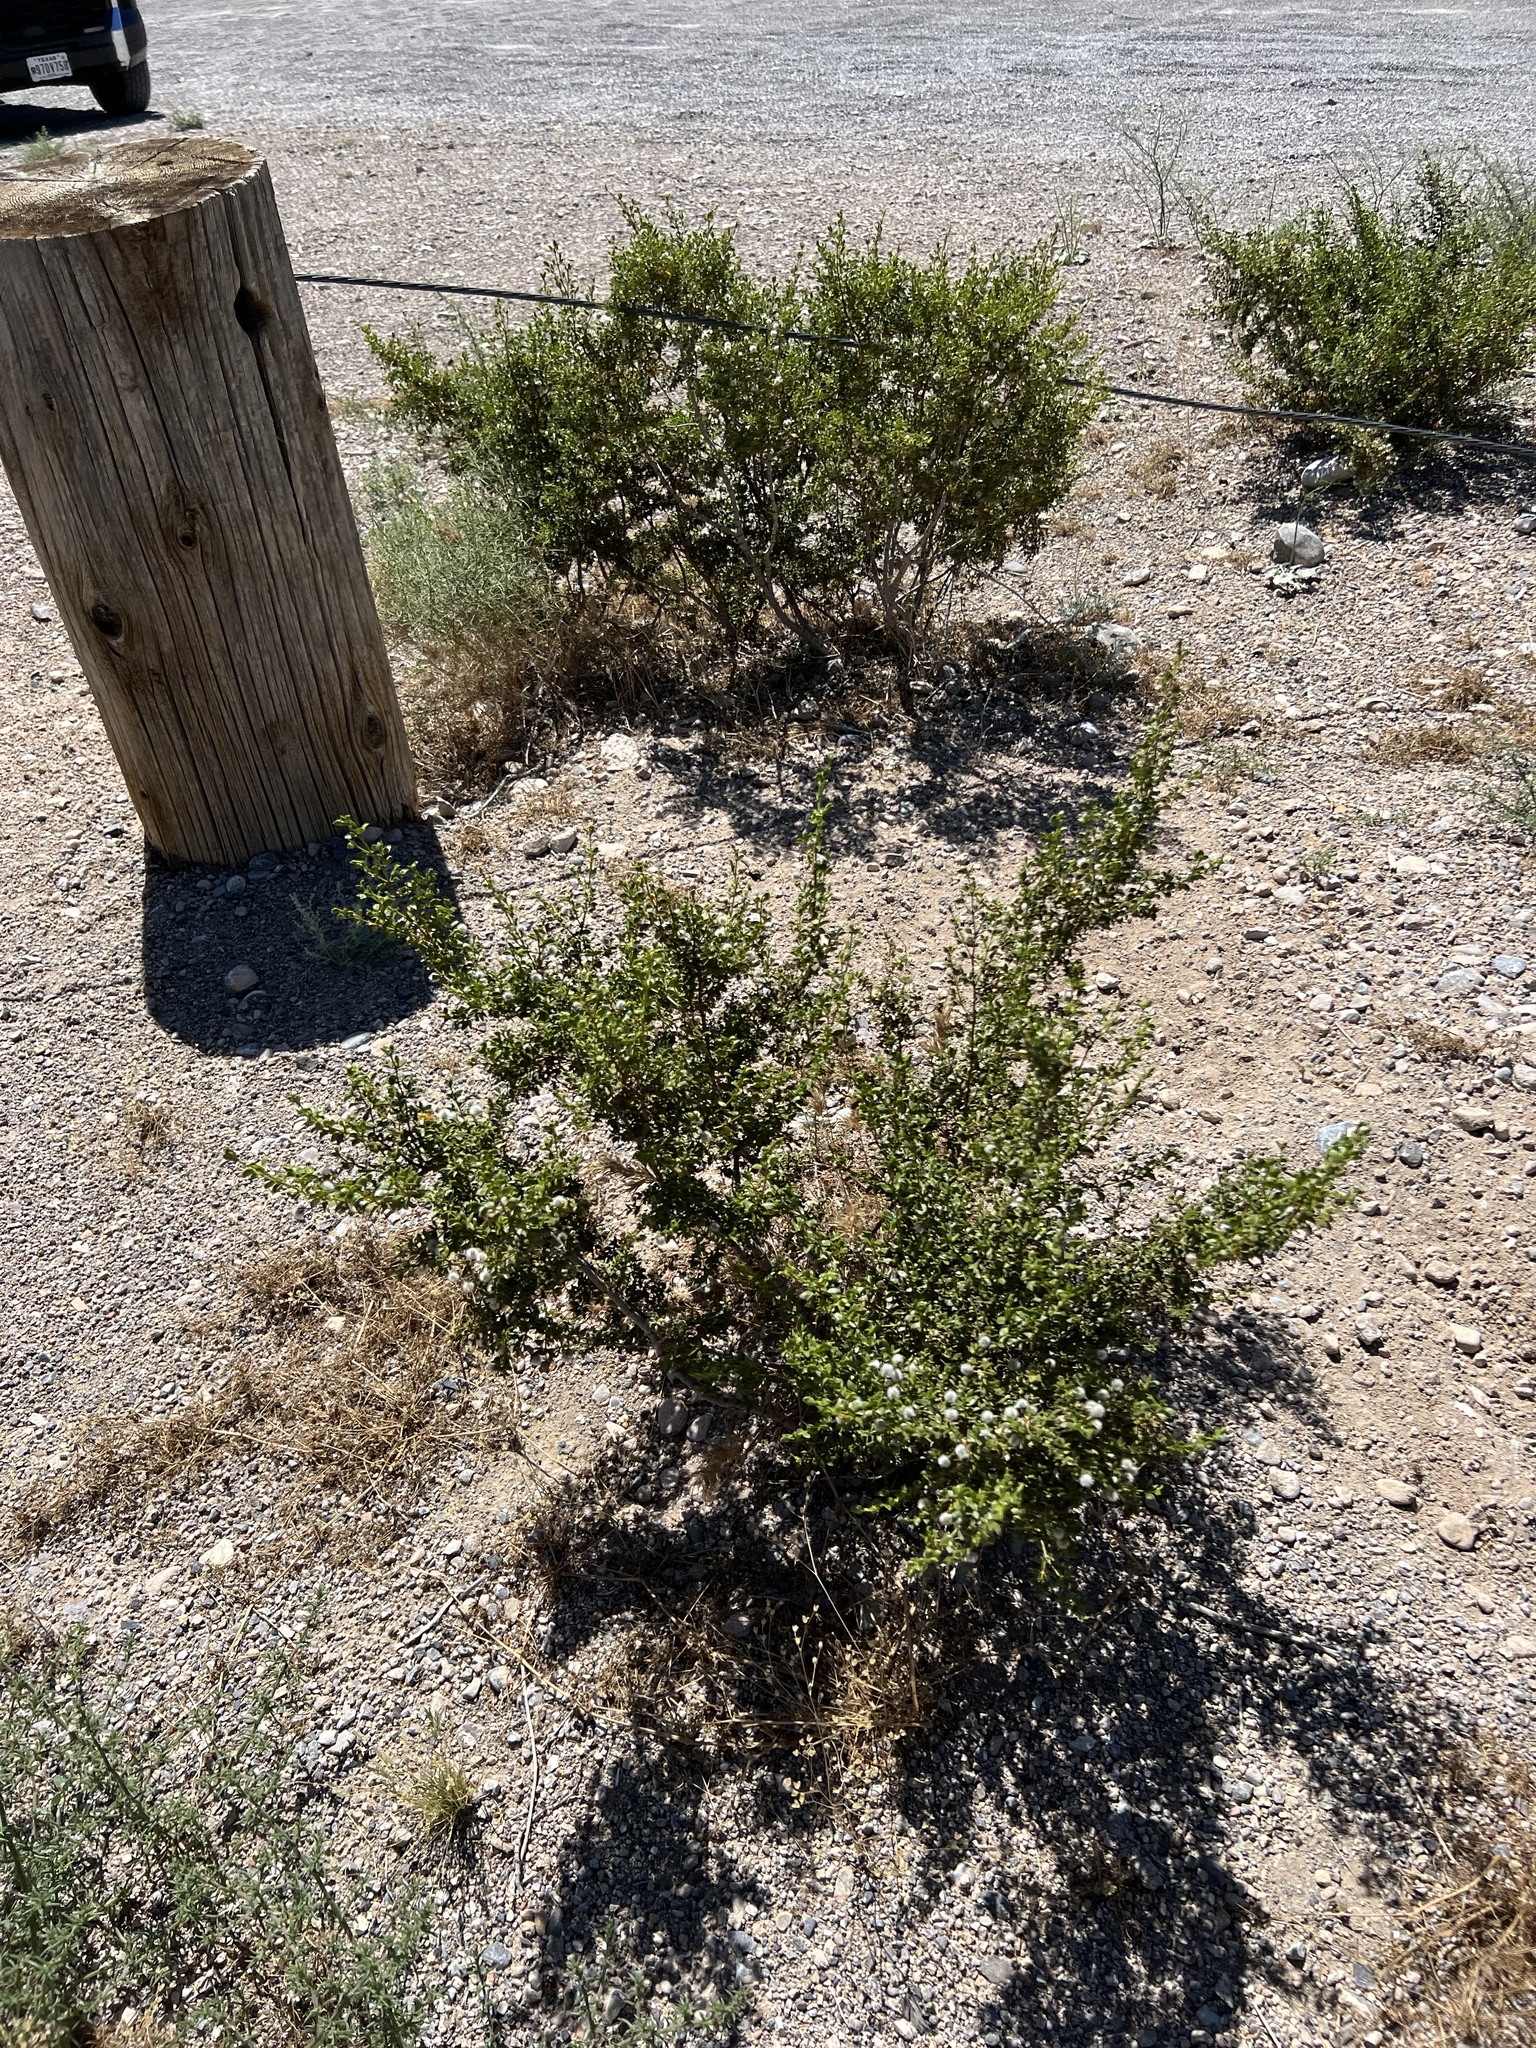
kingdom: Plantae
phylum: Tracheophyta
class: Magnoliopsida
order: Zygophyllales
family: Zygophyllaceae
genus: Larrea
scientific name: Larrea tridentata
